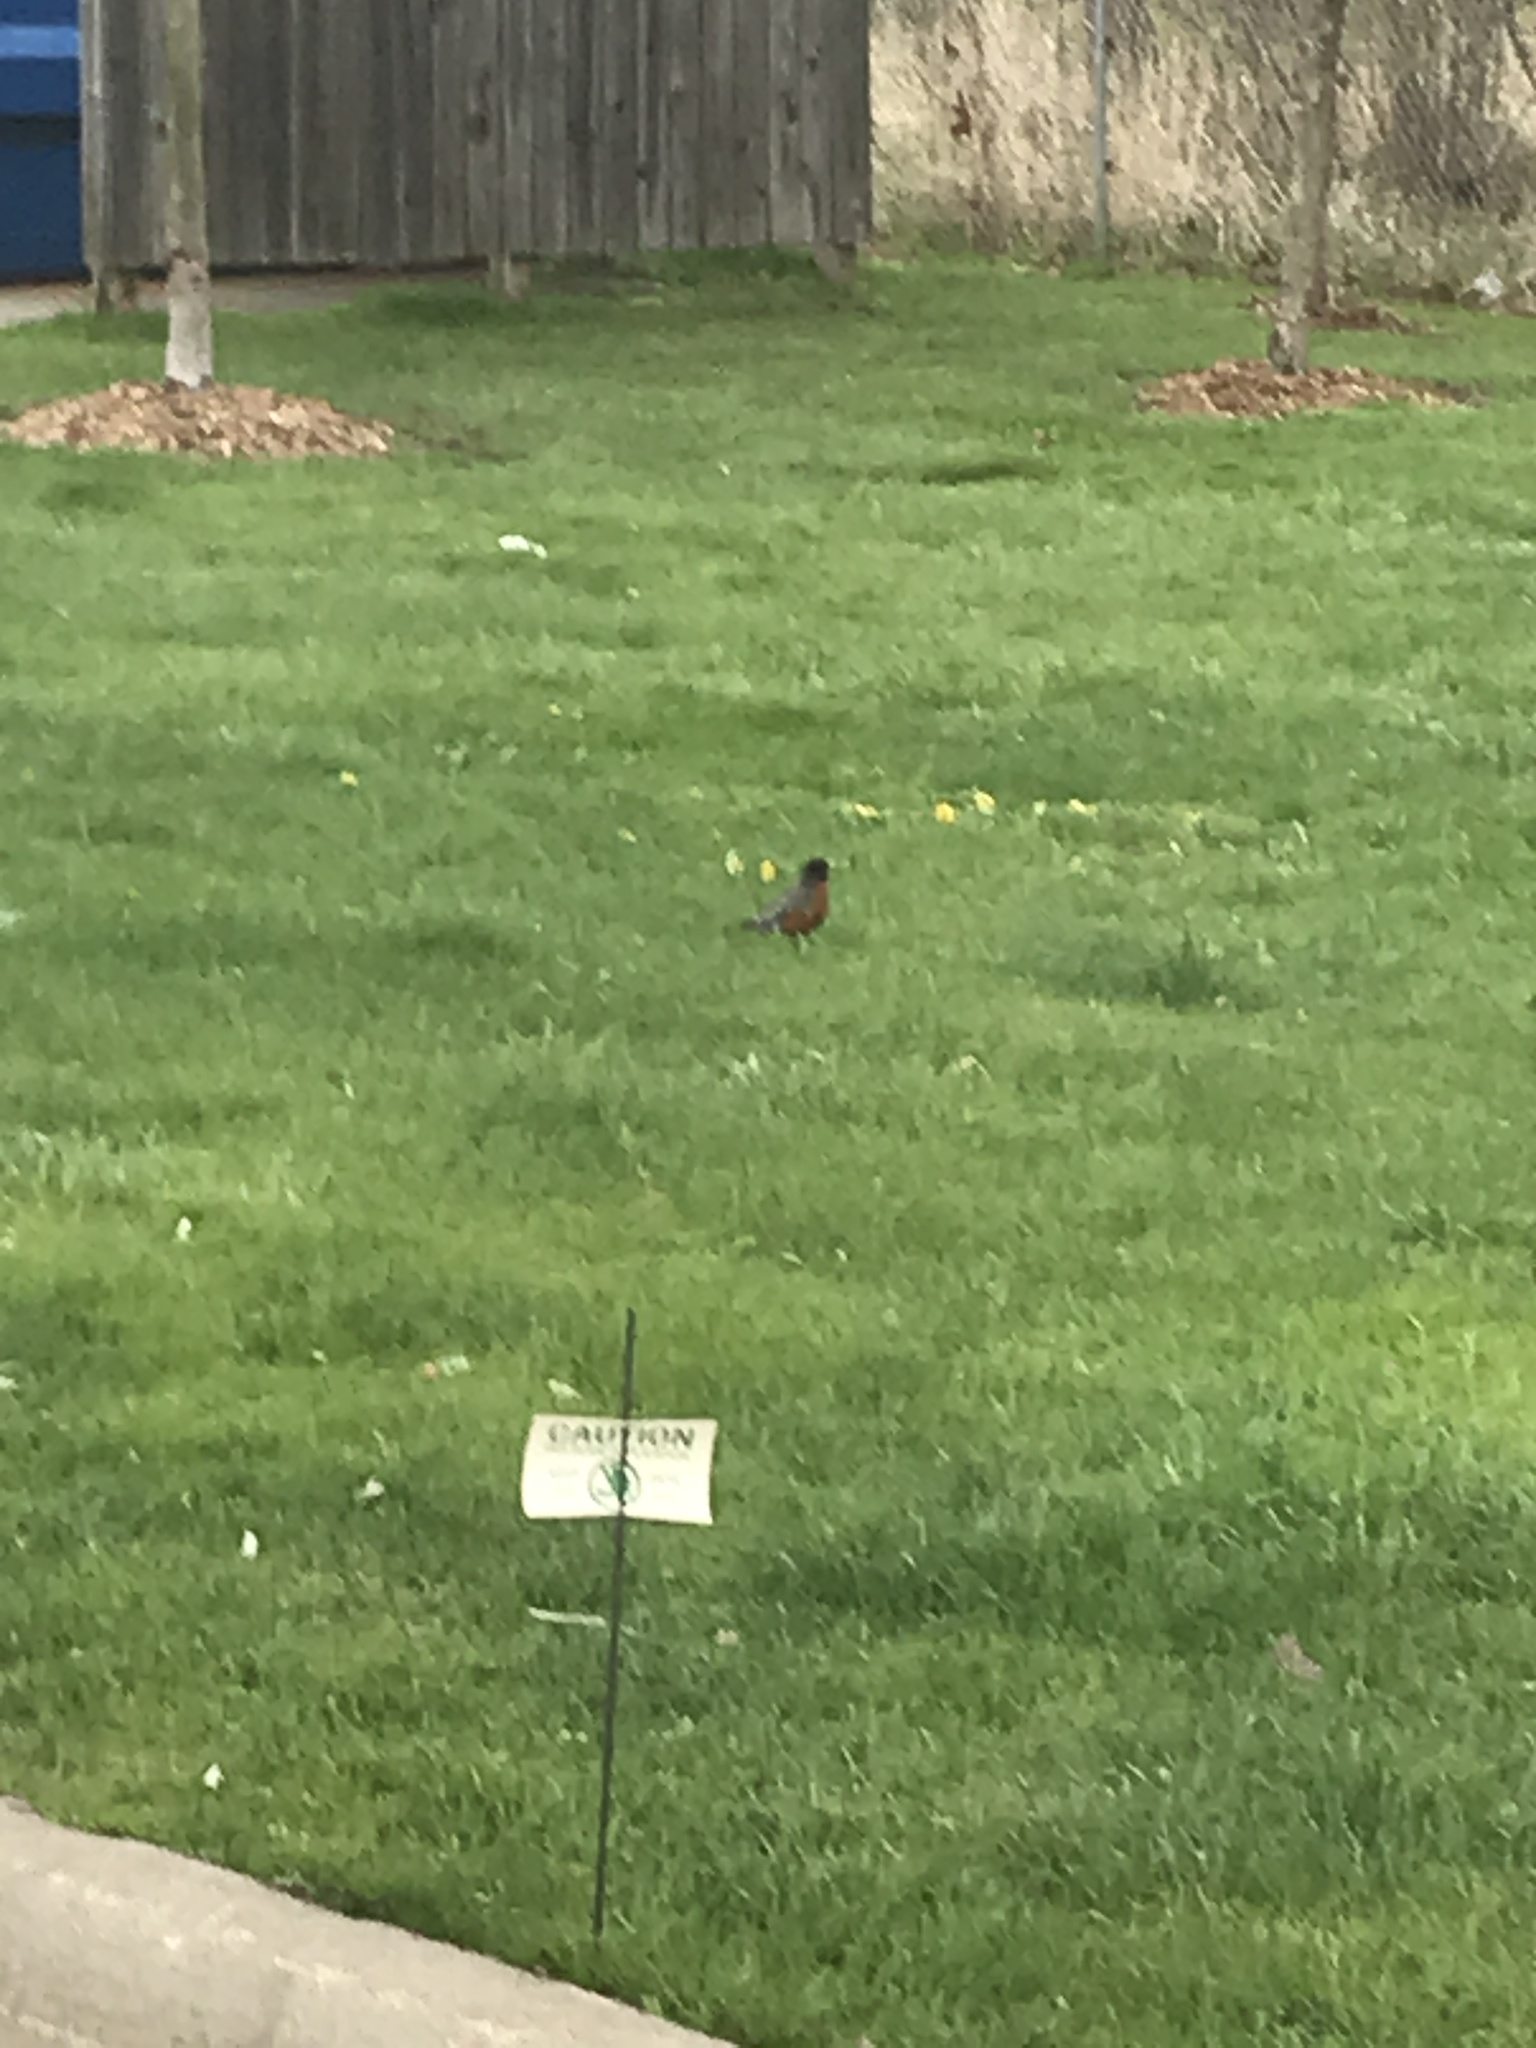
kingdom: Animalia
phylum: Chordata
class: Aves
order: Passeriformes
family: Turdidae
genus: Turdus
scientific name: Turdus migratorius
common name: American robin
